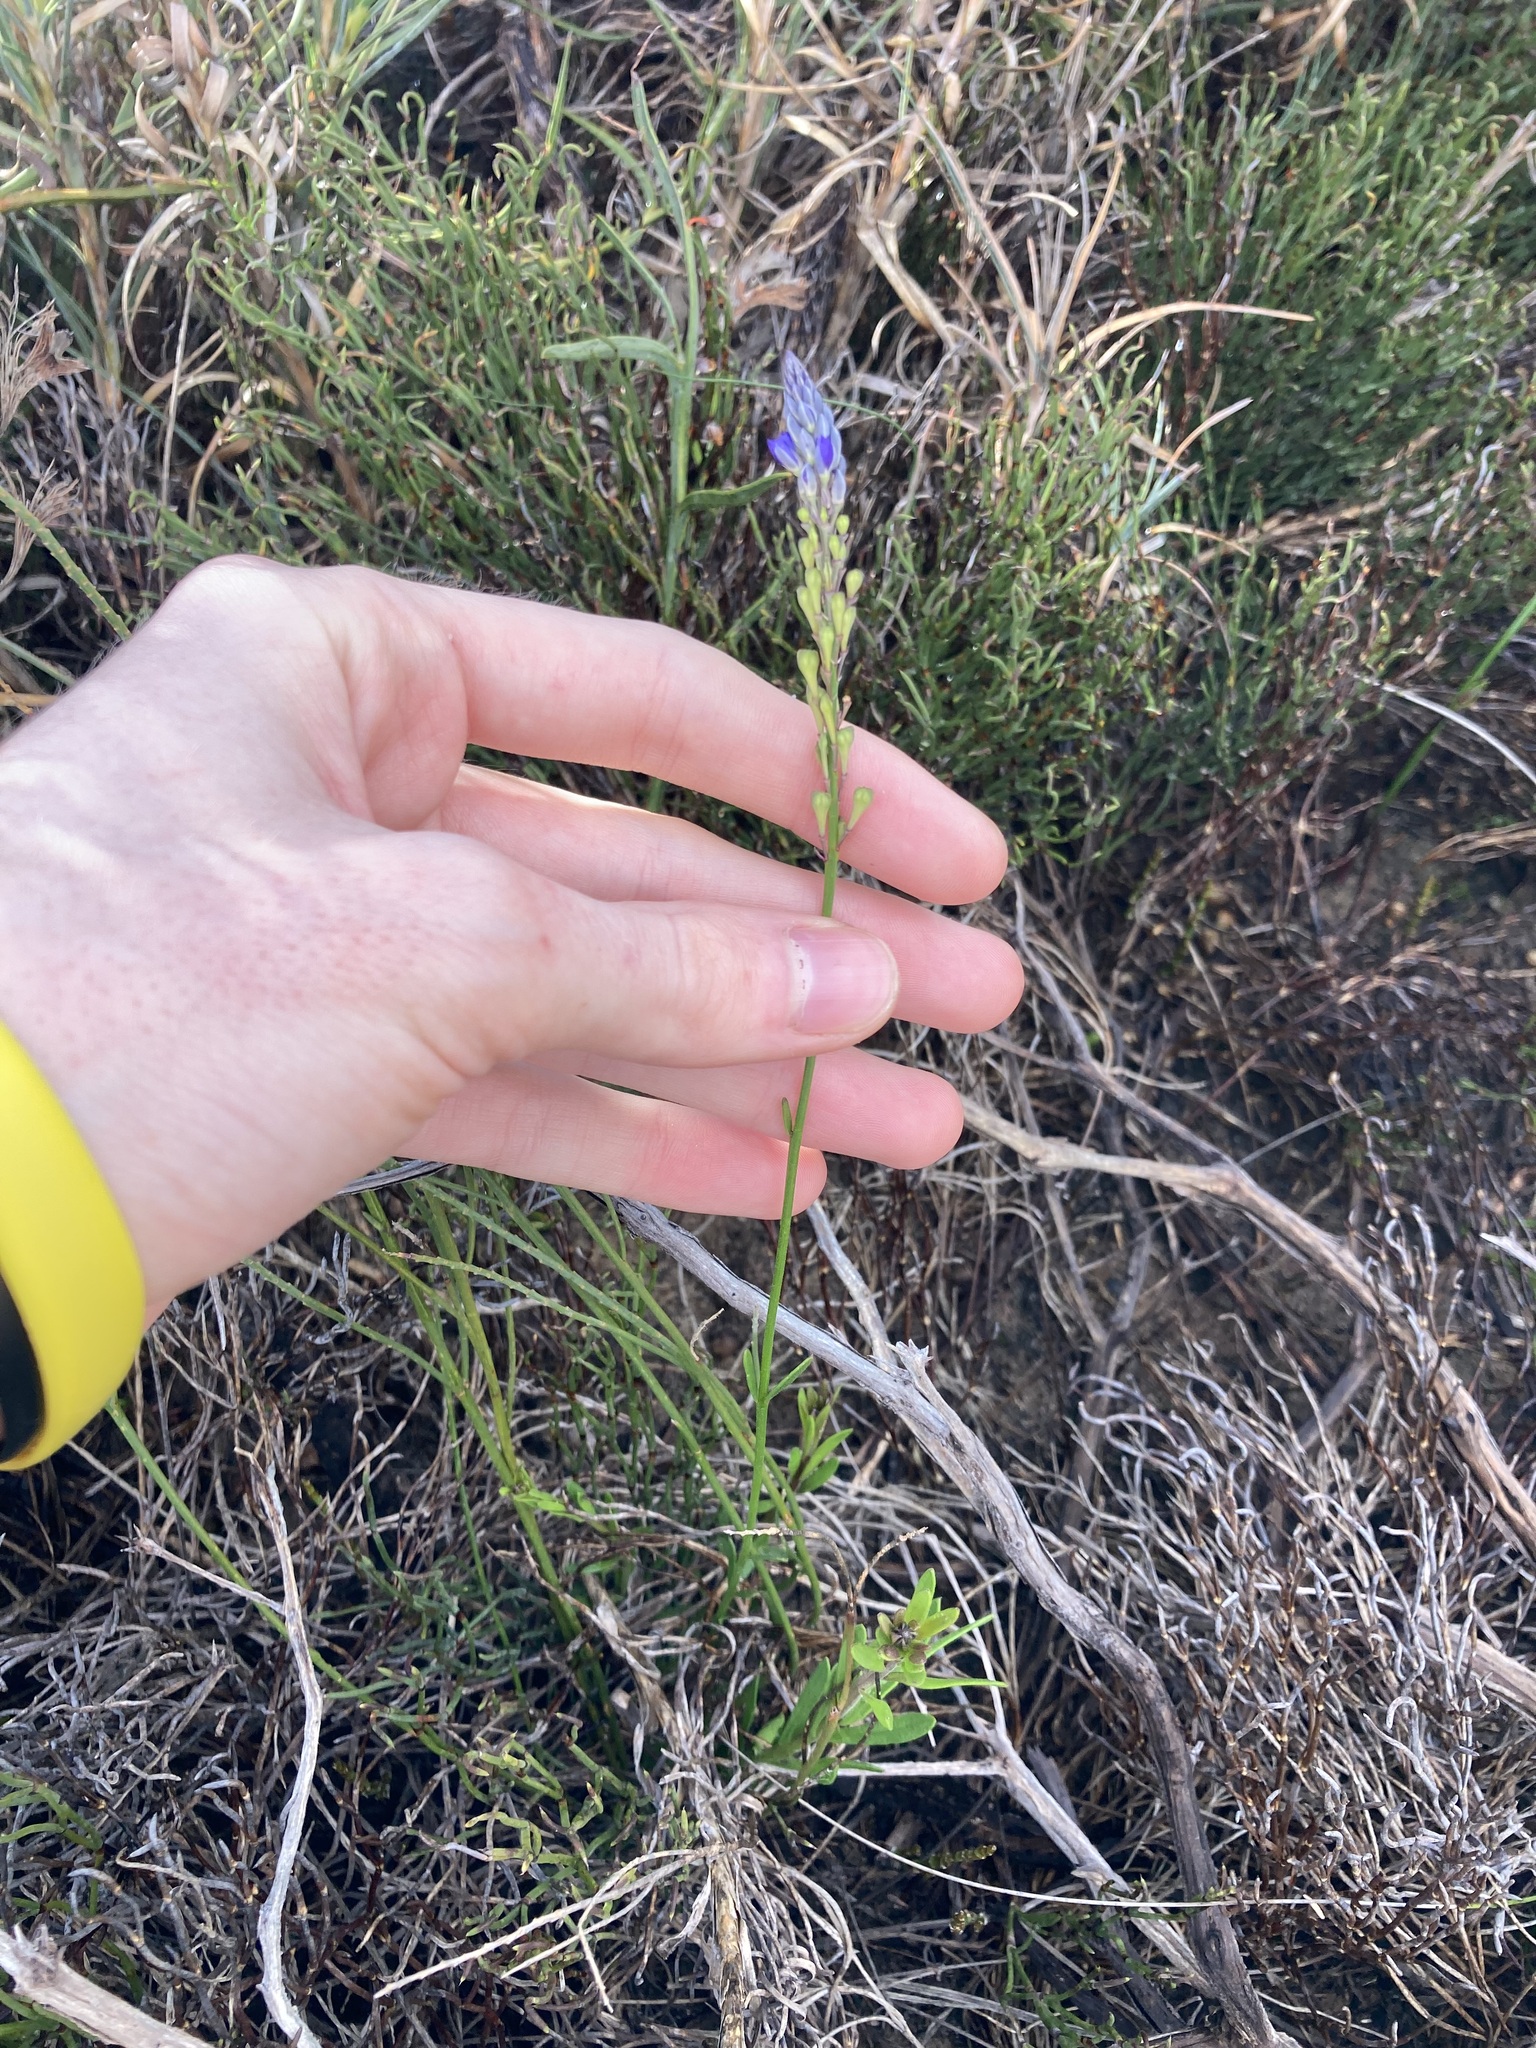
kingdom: Plantae
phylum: Tracheophyta
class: Magnoliopsida
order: Fabales
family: Polygalaceae
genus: Comesperma
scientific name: Comesperma calymega
